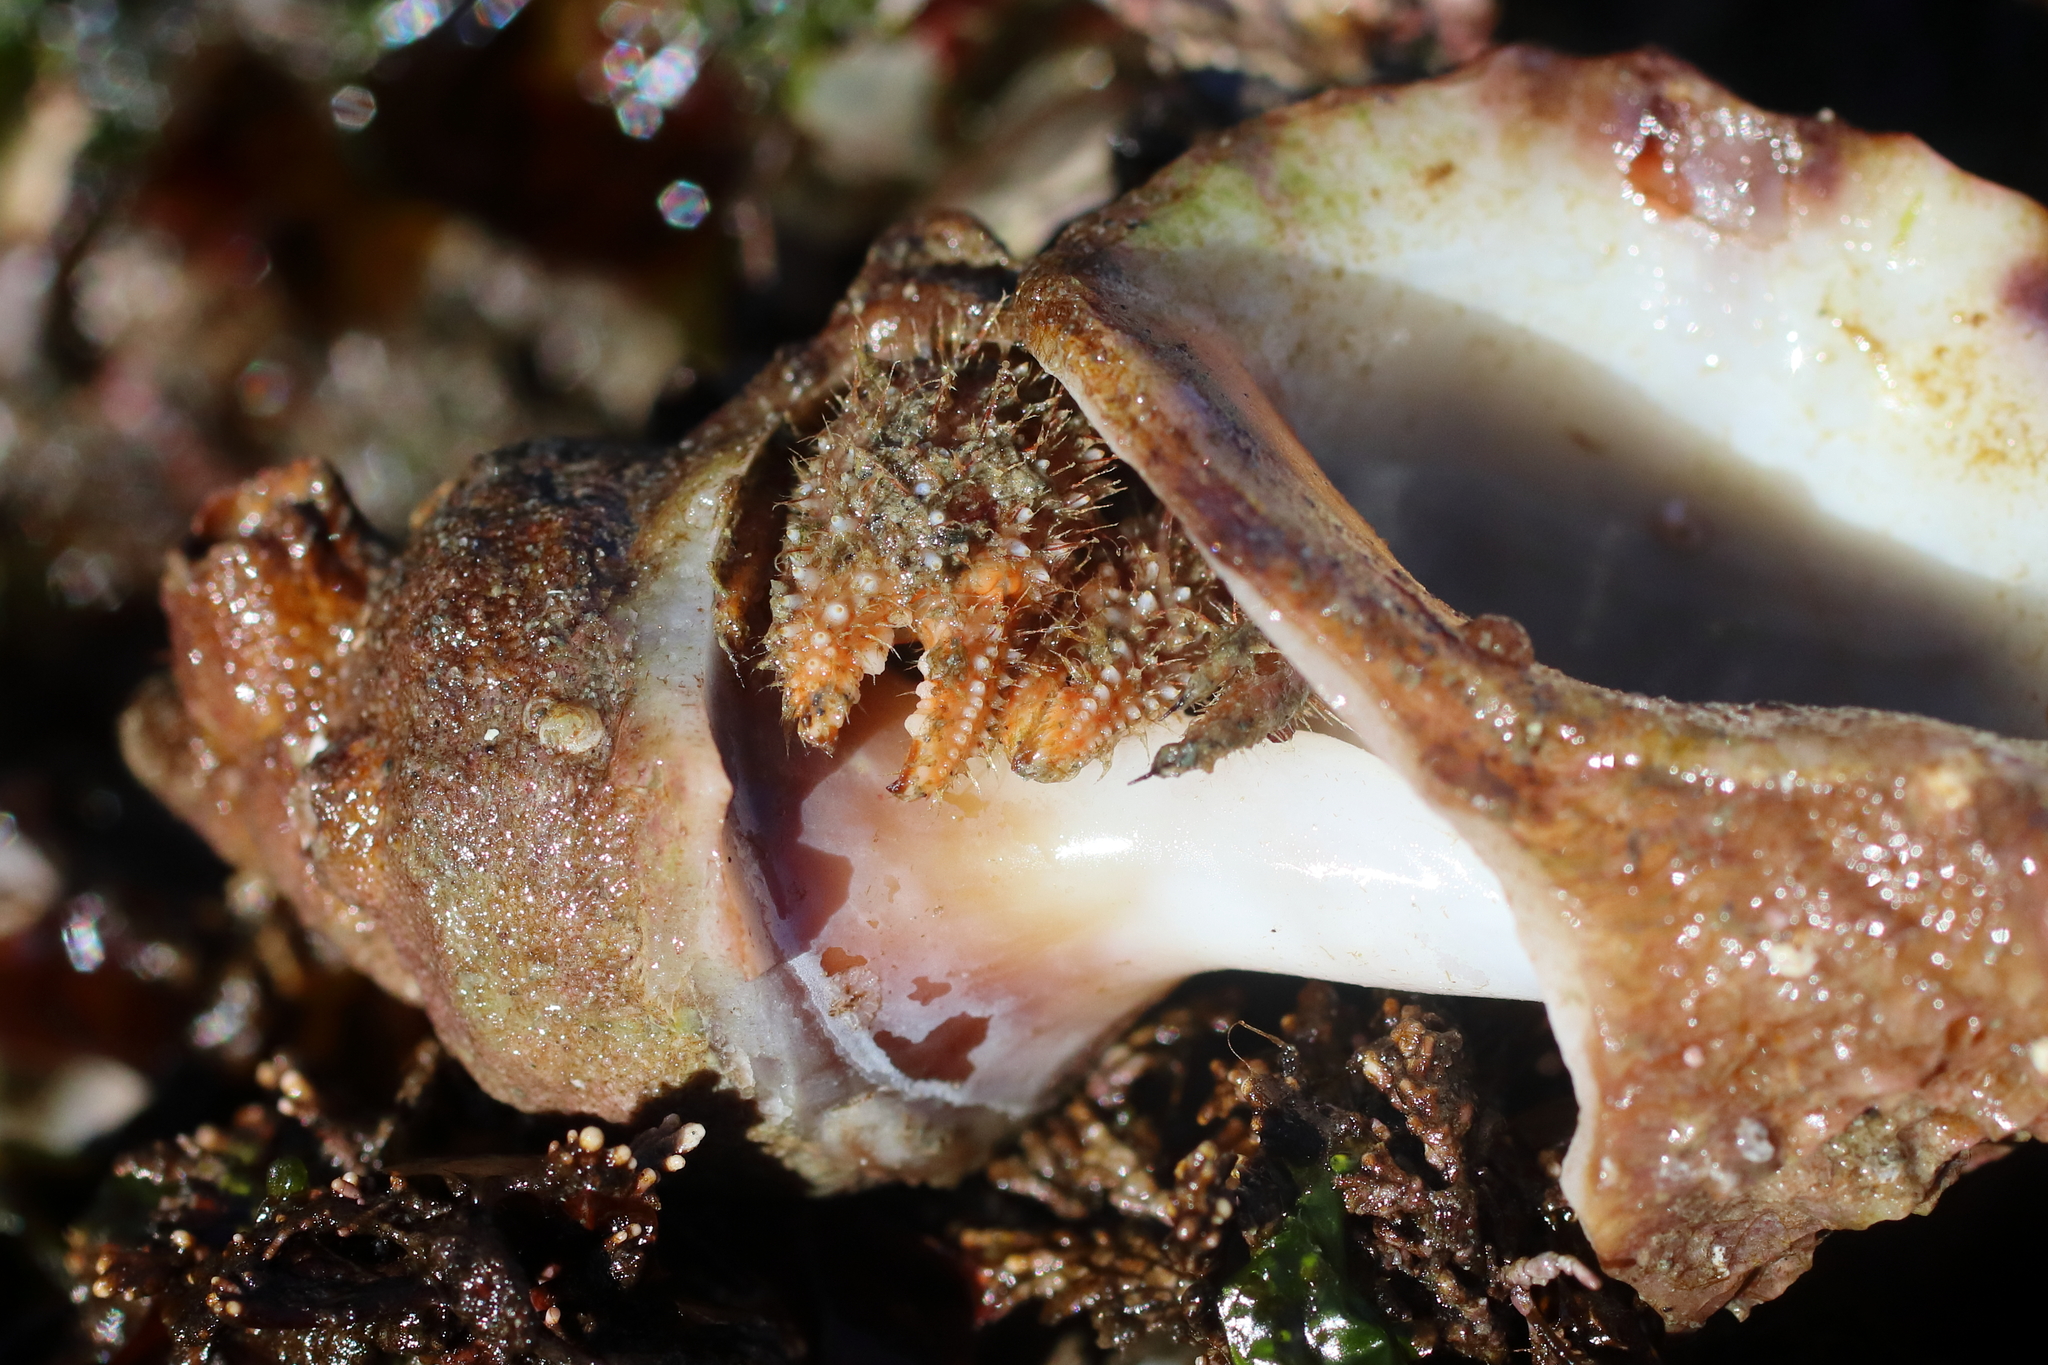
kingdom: Animalia
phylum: Arthropoda
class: Malacostraca
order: Decapoda
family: Paguridae
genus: Pagurus
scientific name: Pagurus kennerlyi
